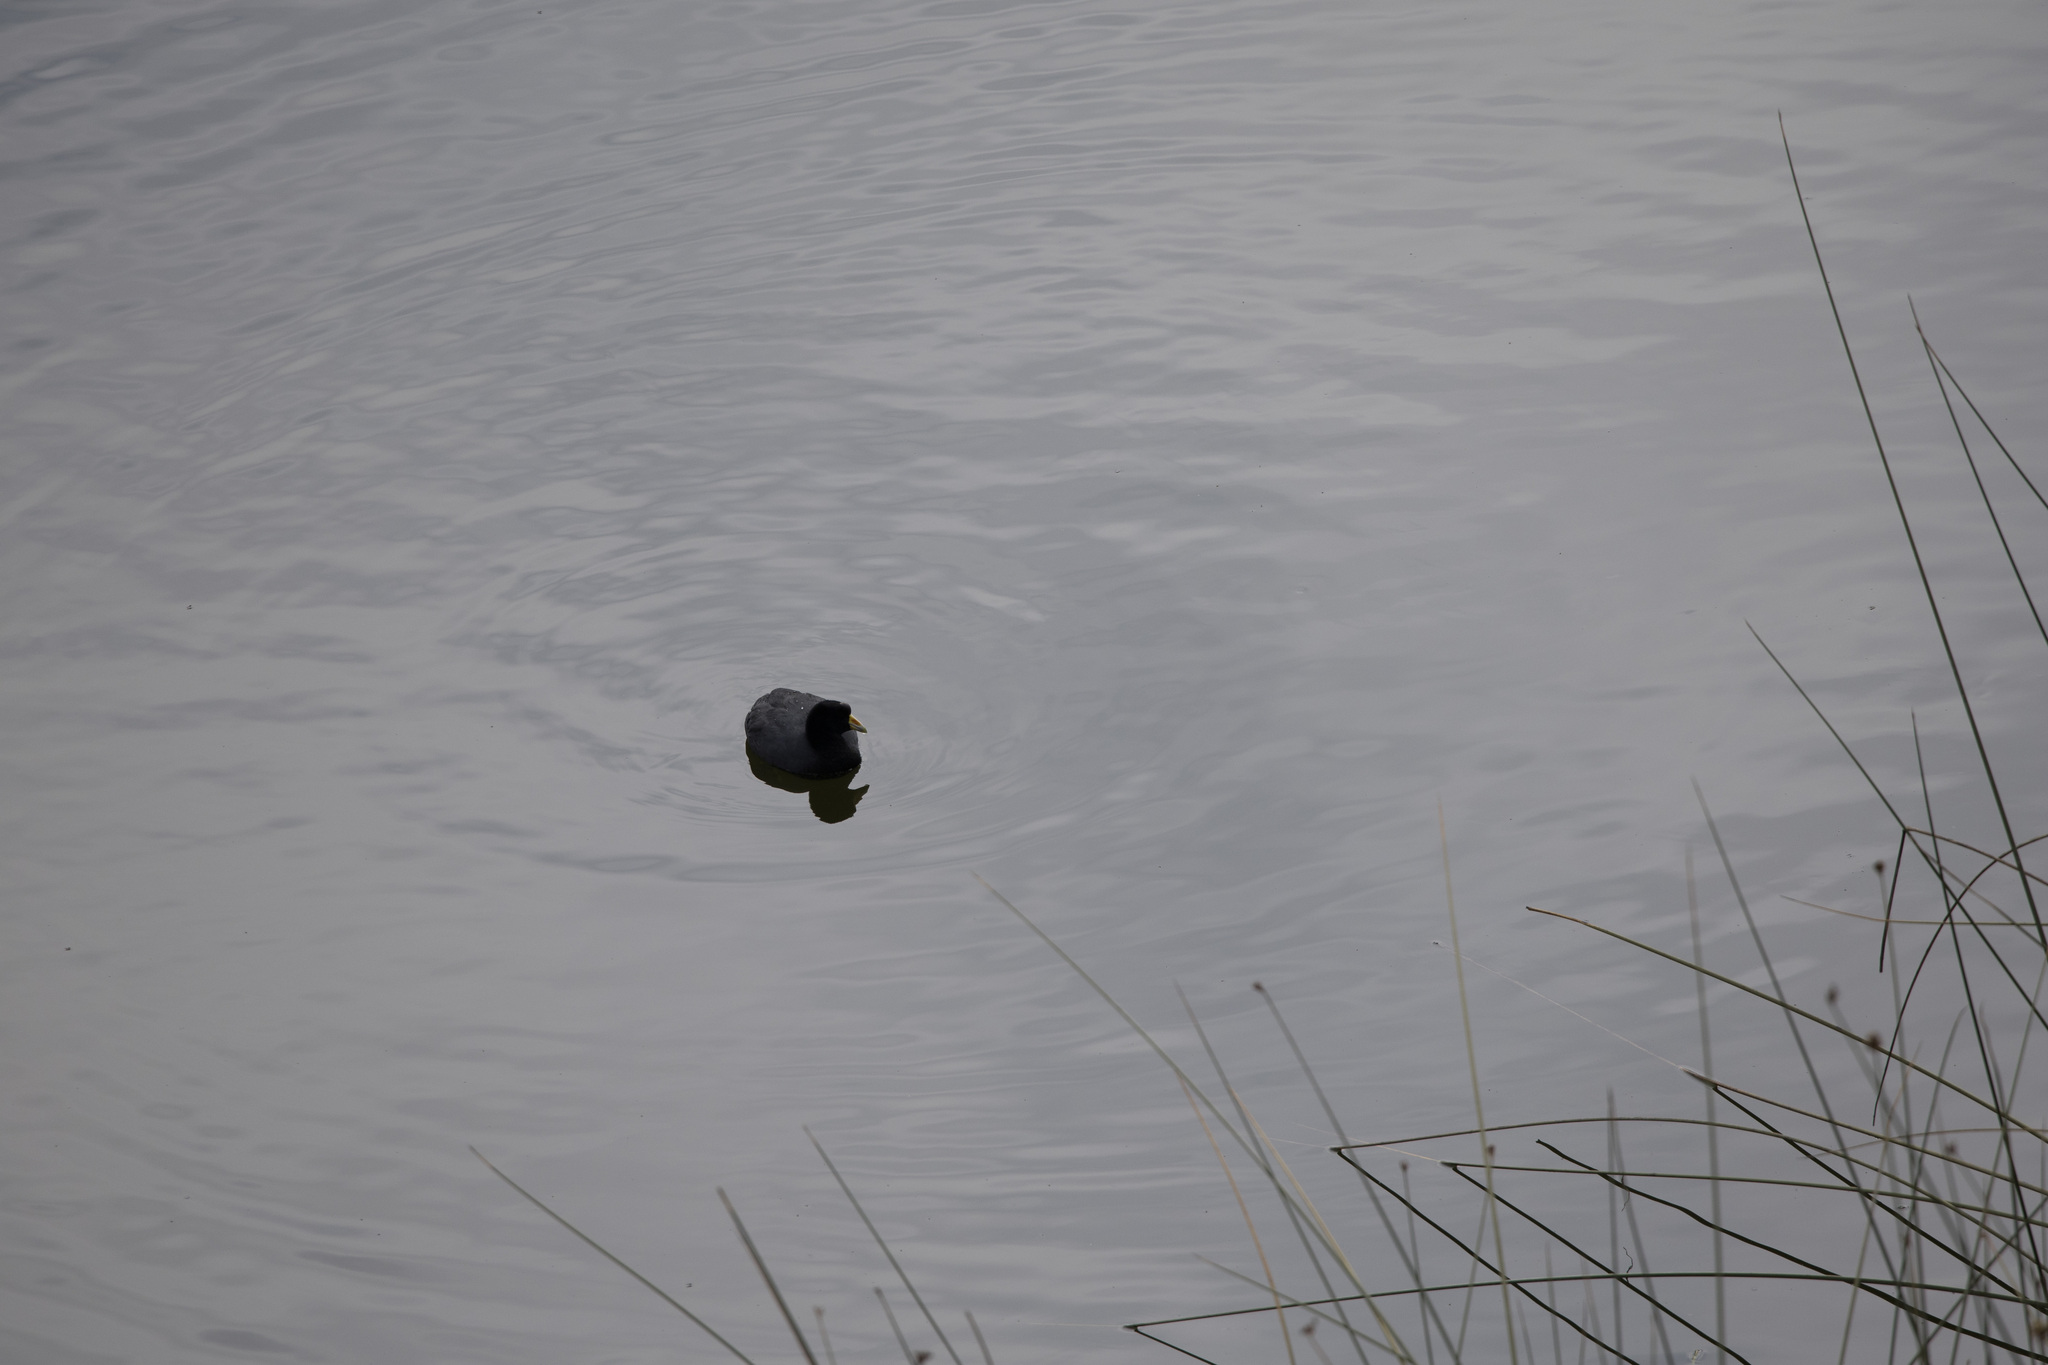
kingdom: Animalia
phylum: Chordata
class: Aves
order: Gruiformes
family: Rallidae
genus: Fulica
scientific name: Fulica ardesiaca
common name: Andean coot
